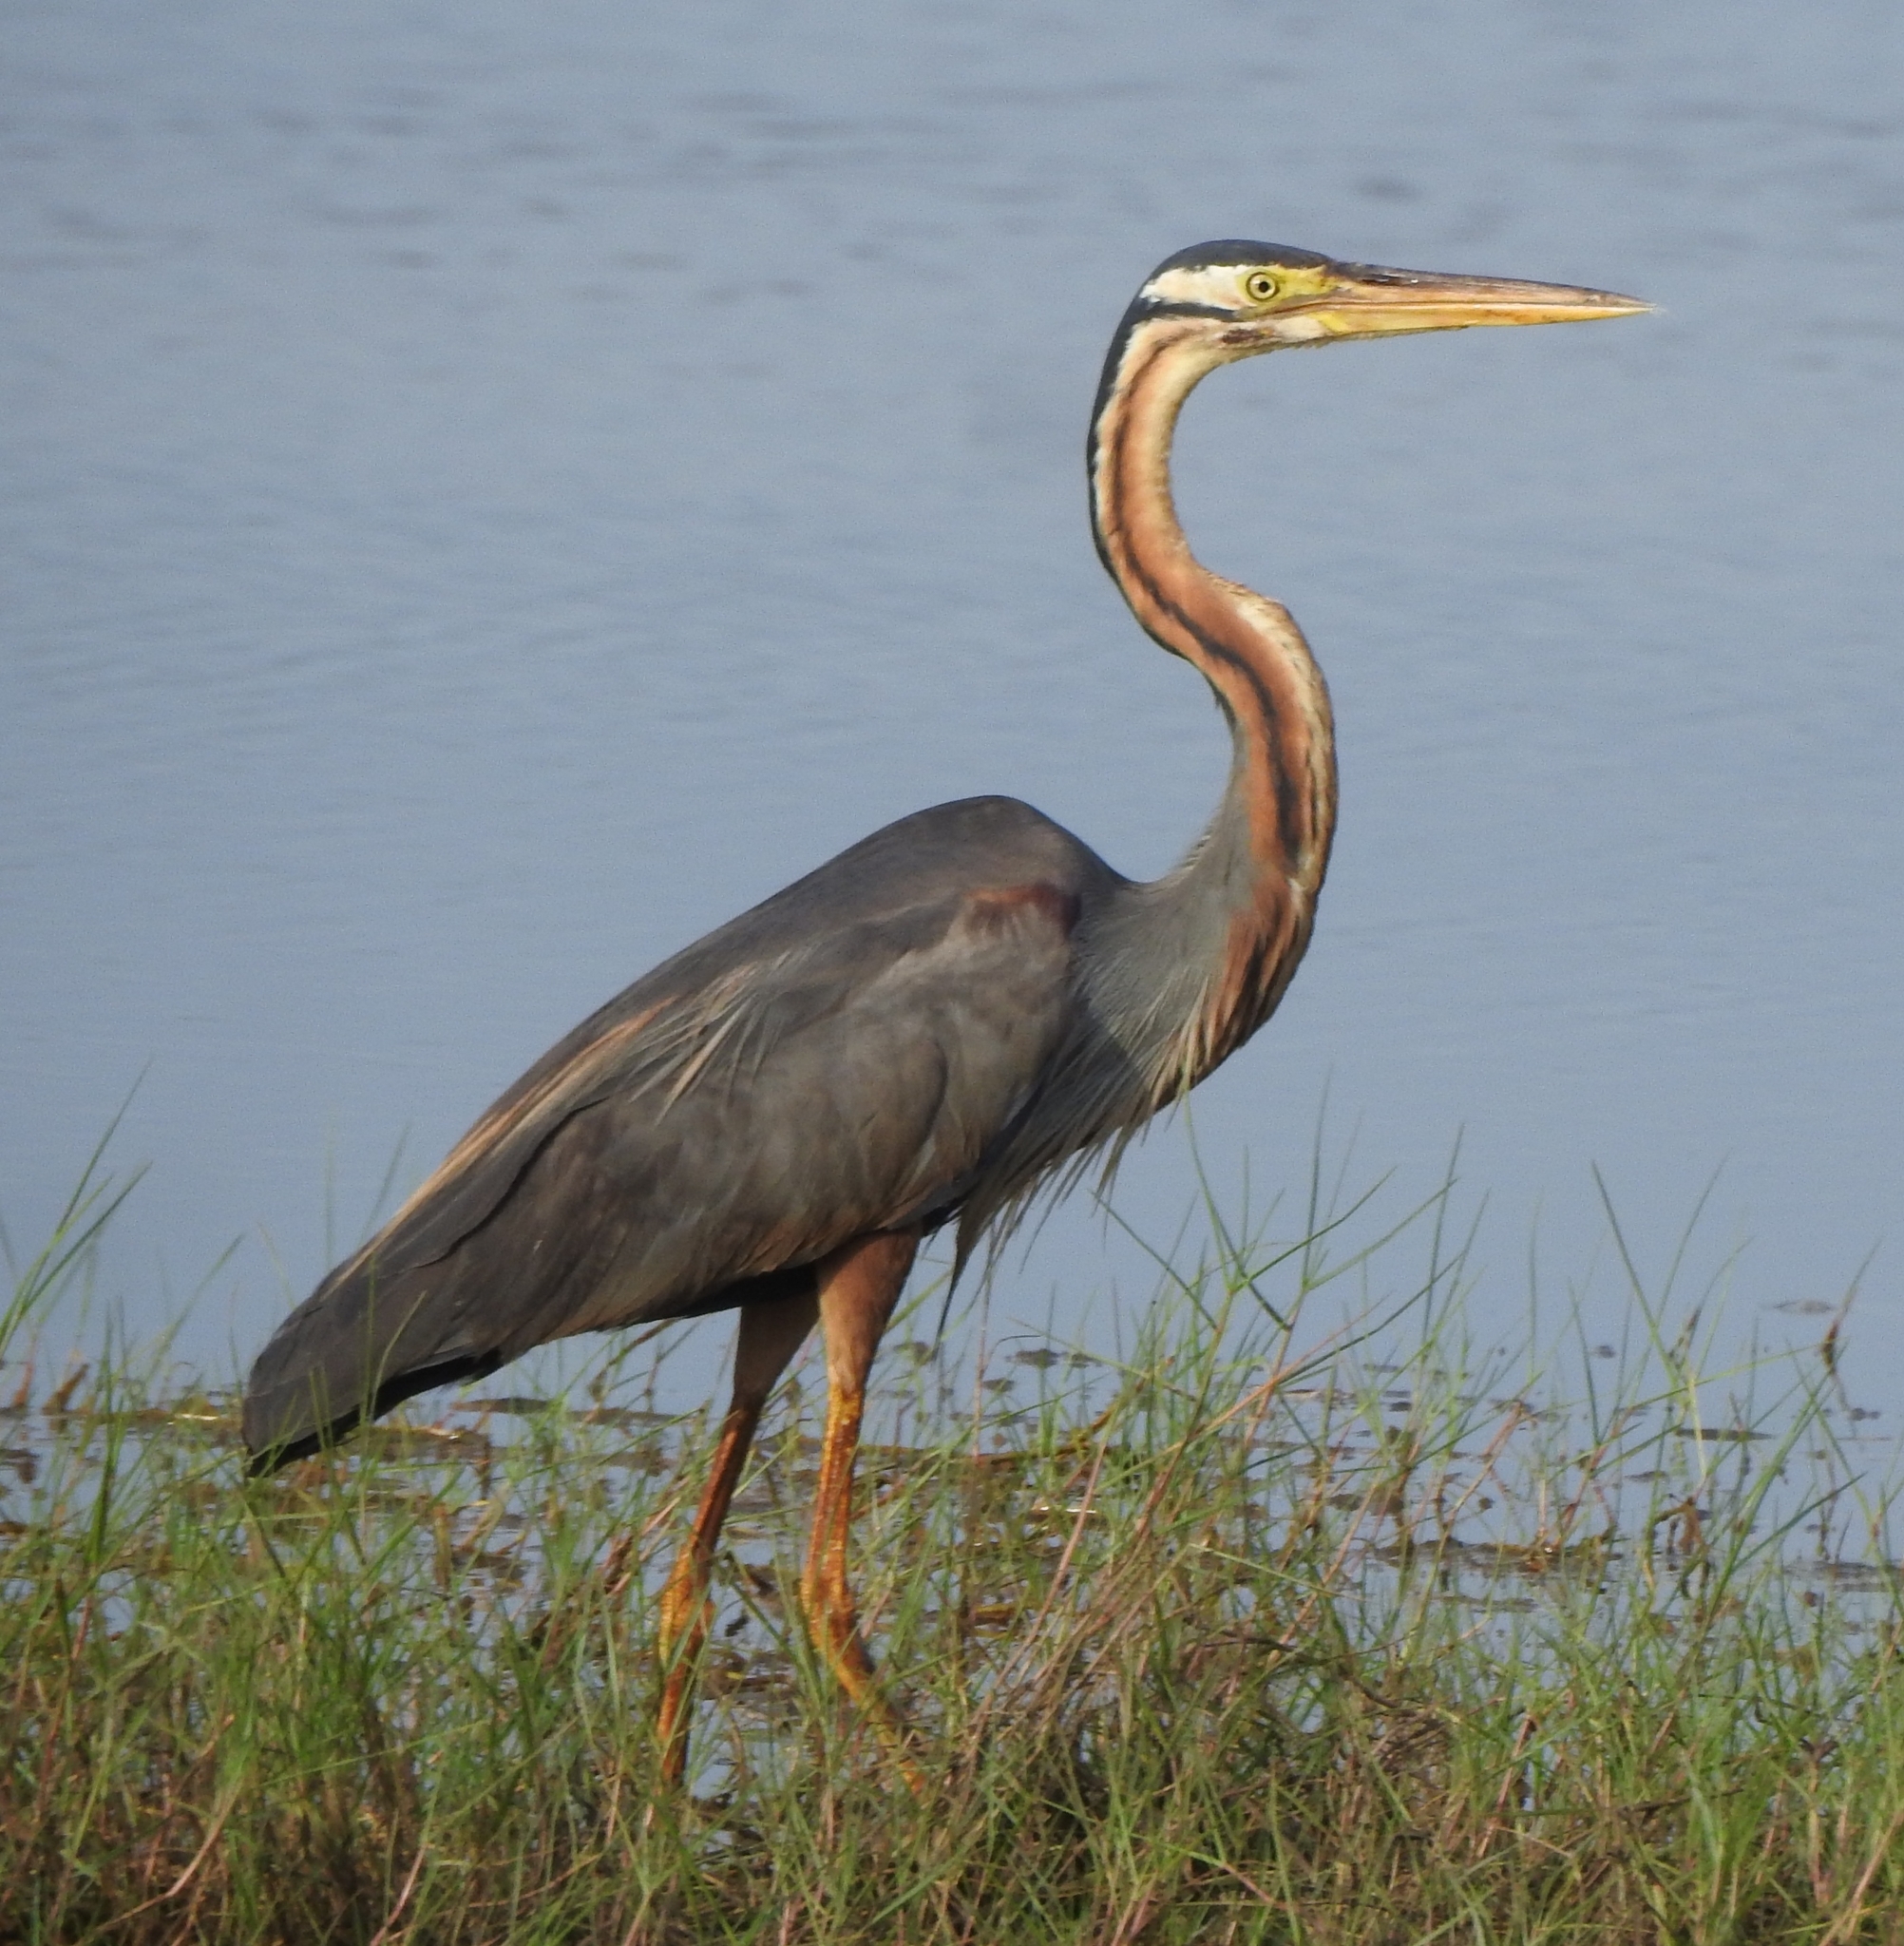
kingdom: Animalia
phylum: Chordata
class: Aves
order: Pelecaniformes
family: Ardeidae
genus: Ardea
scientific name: Ardea purpurea
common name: Purple heron
